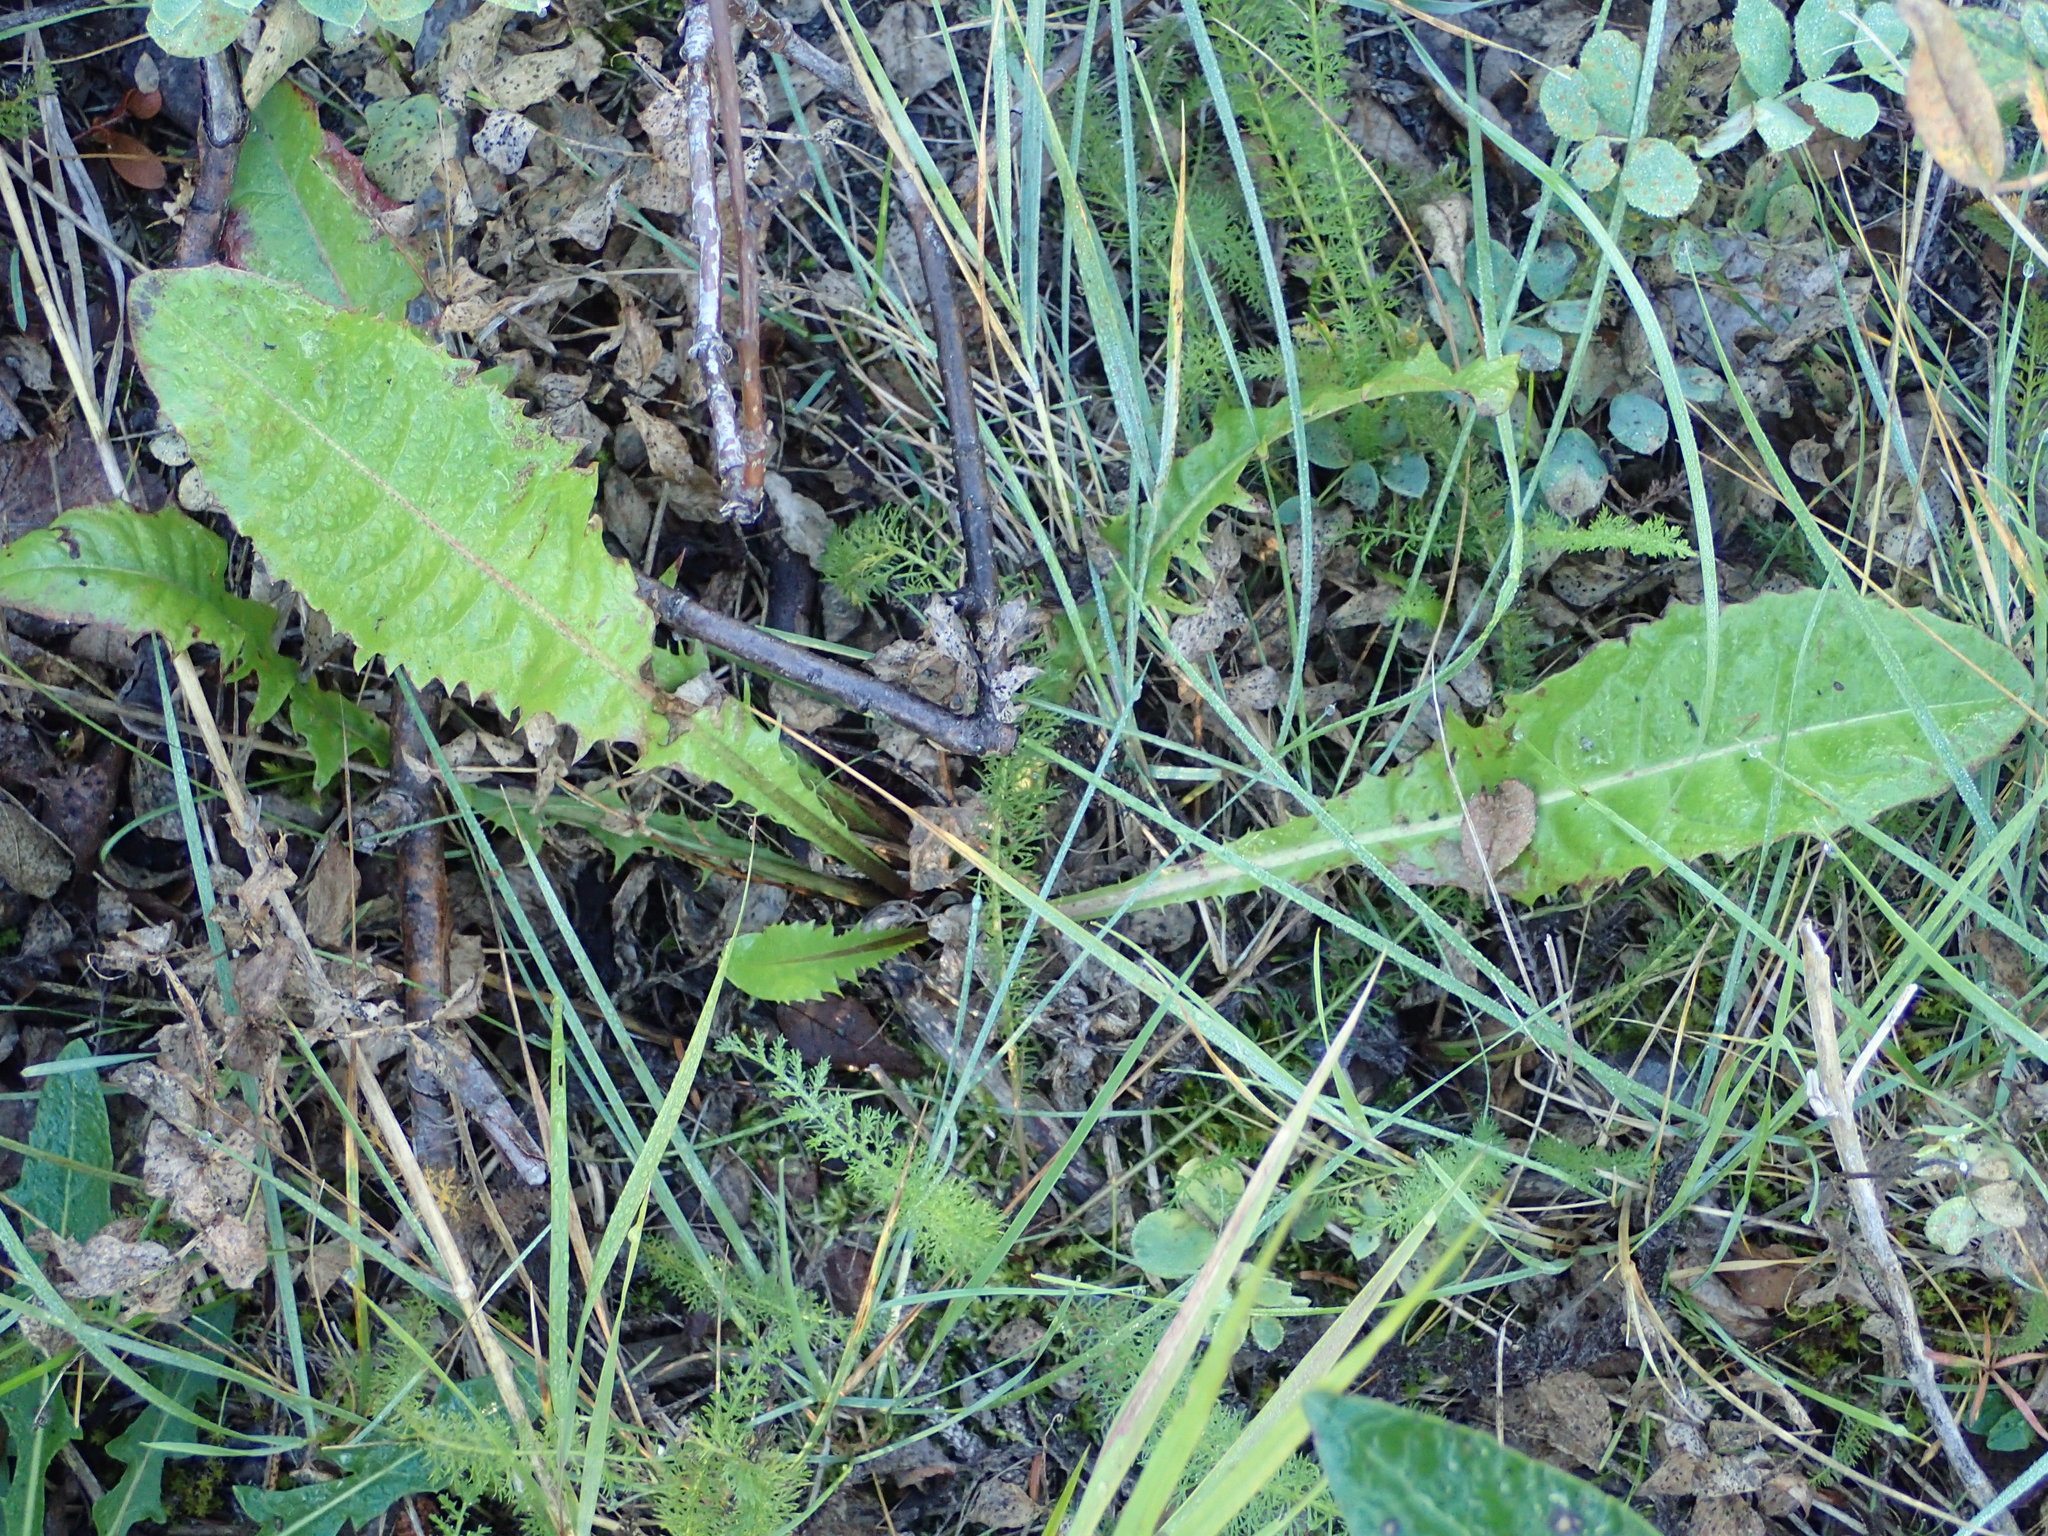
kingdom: Plantae
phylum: Tracheophyta
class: Magnoliopsida
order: Asterales
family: Asteraceae
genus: Taraxacum
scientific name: Taraxacum officinale
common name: Common dandelion
